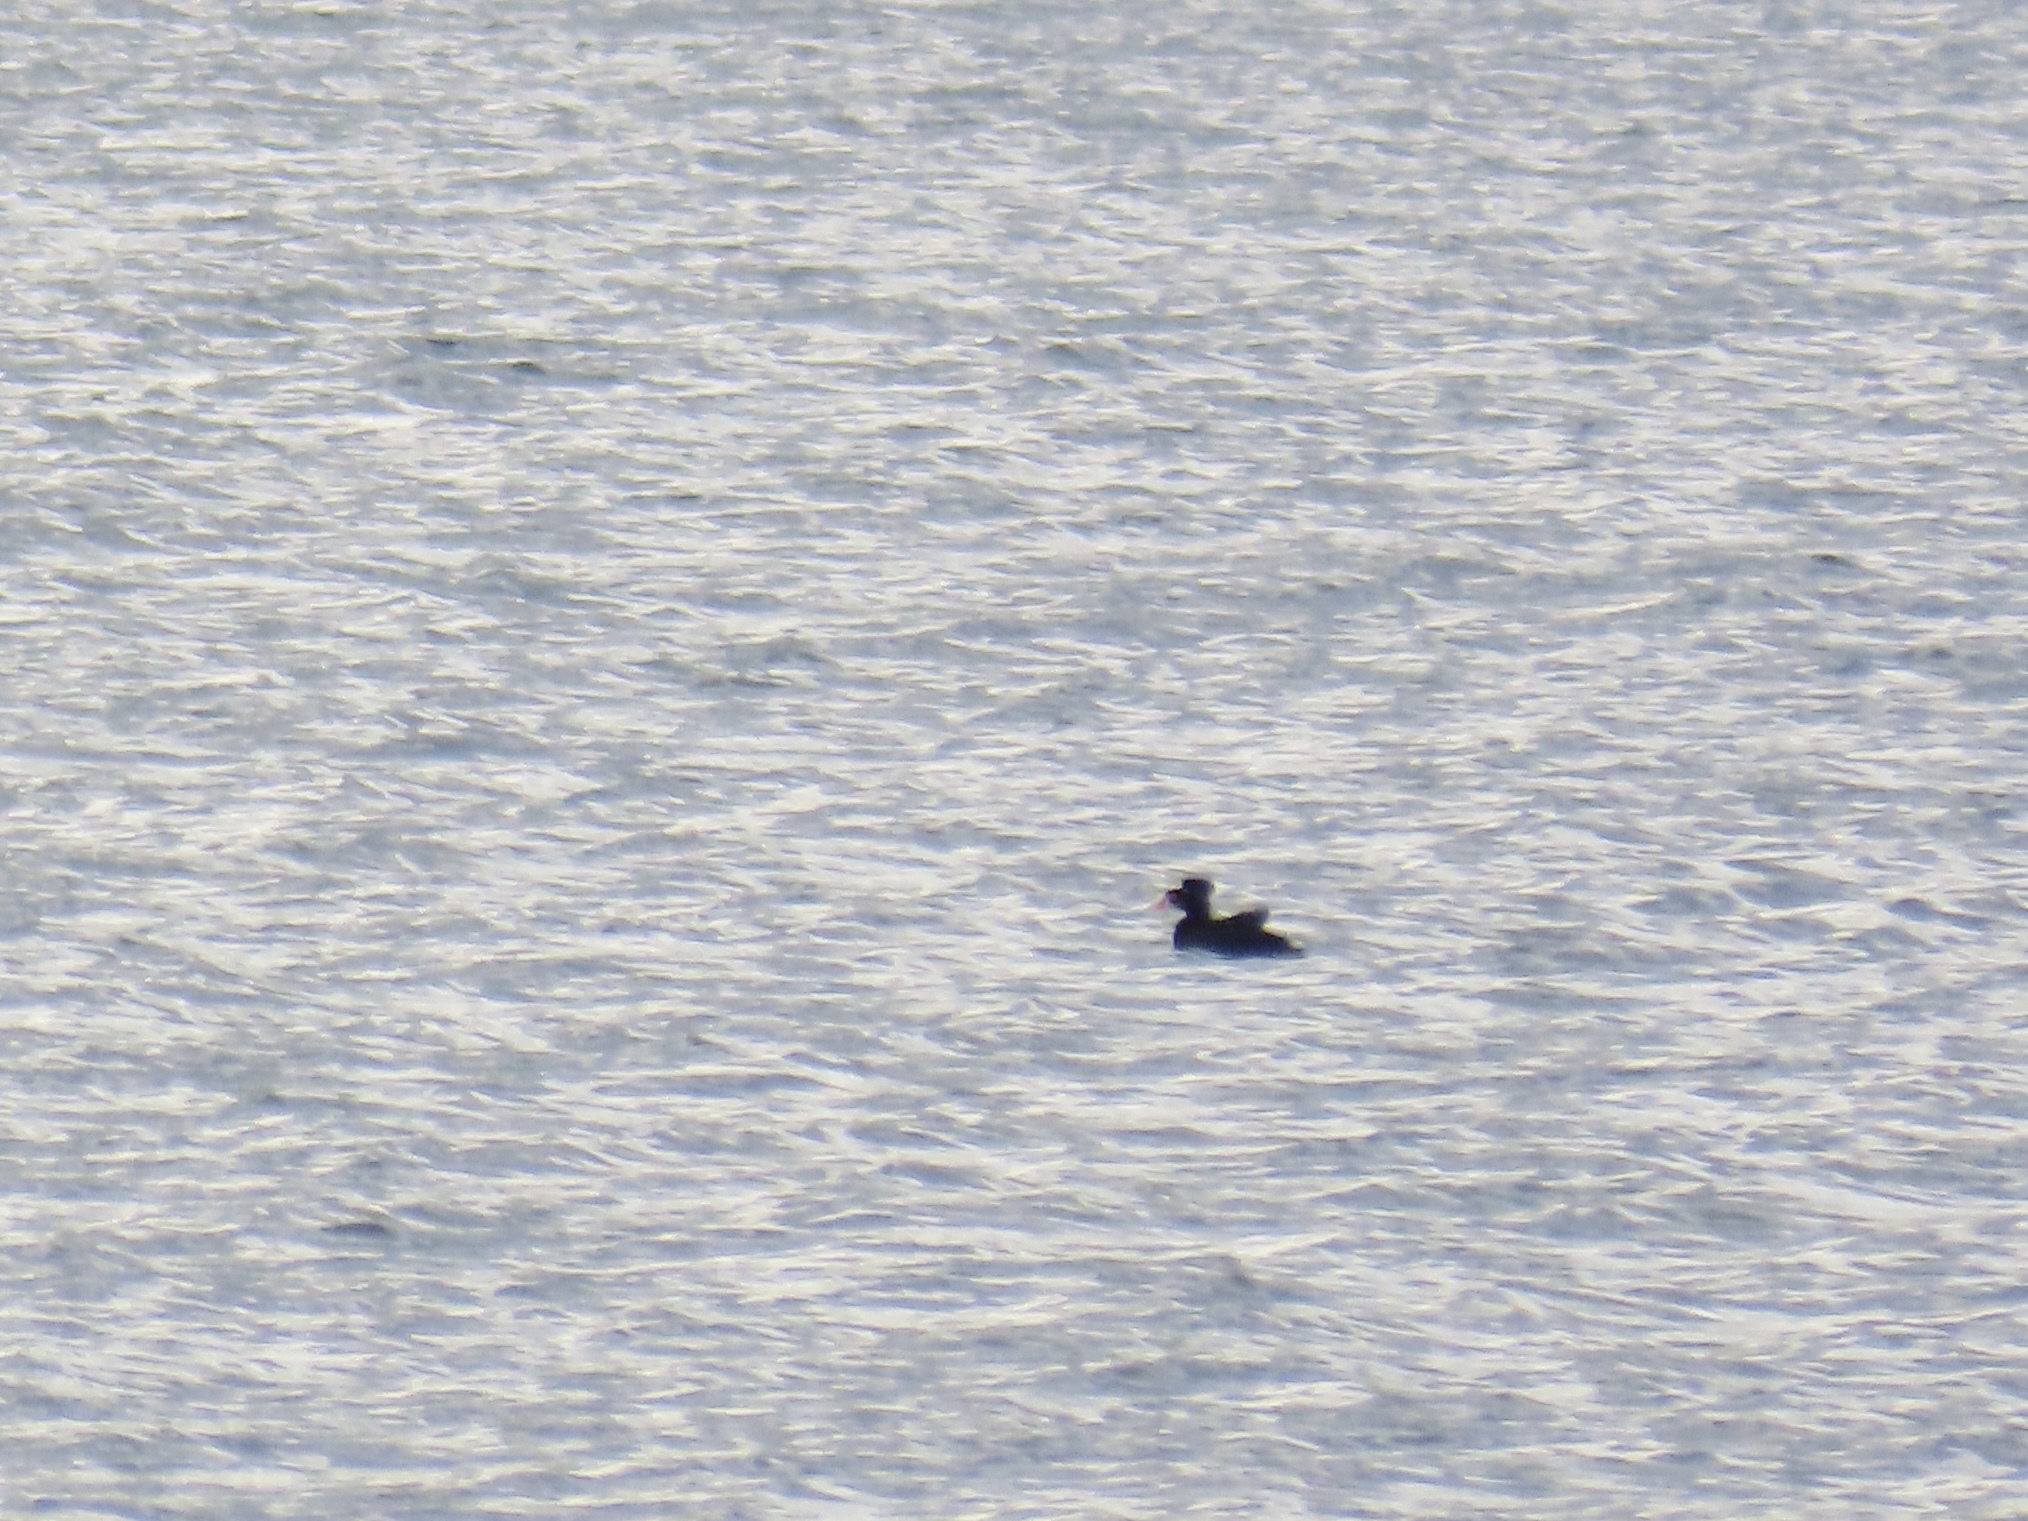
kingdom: Animalia
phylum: Chordata
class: Aves
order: Anseriformes
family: Anatidae
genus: Melanitta
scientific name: Melanitta perspicillata
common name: Surf scoter
